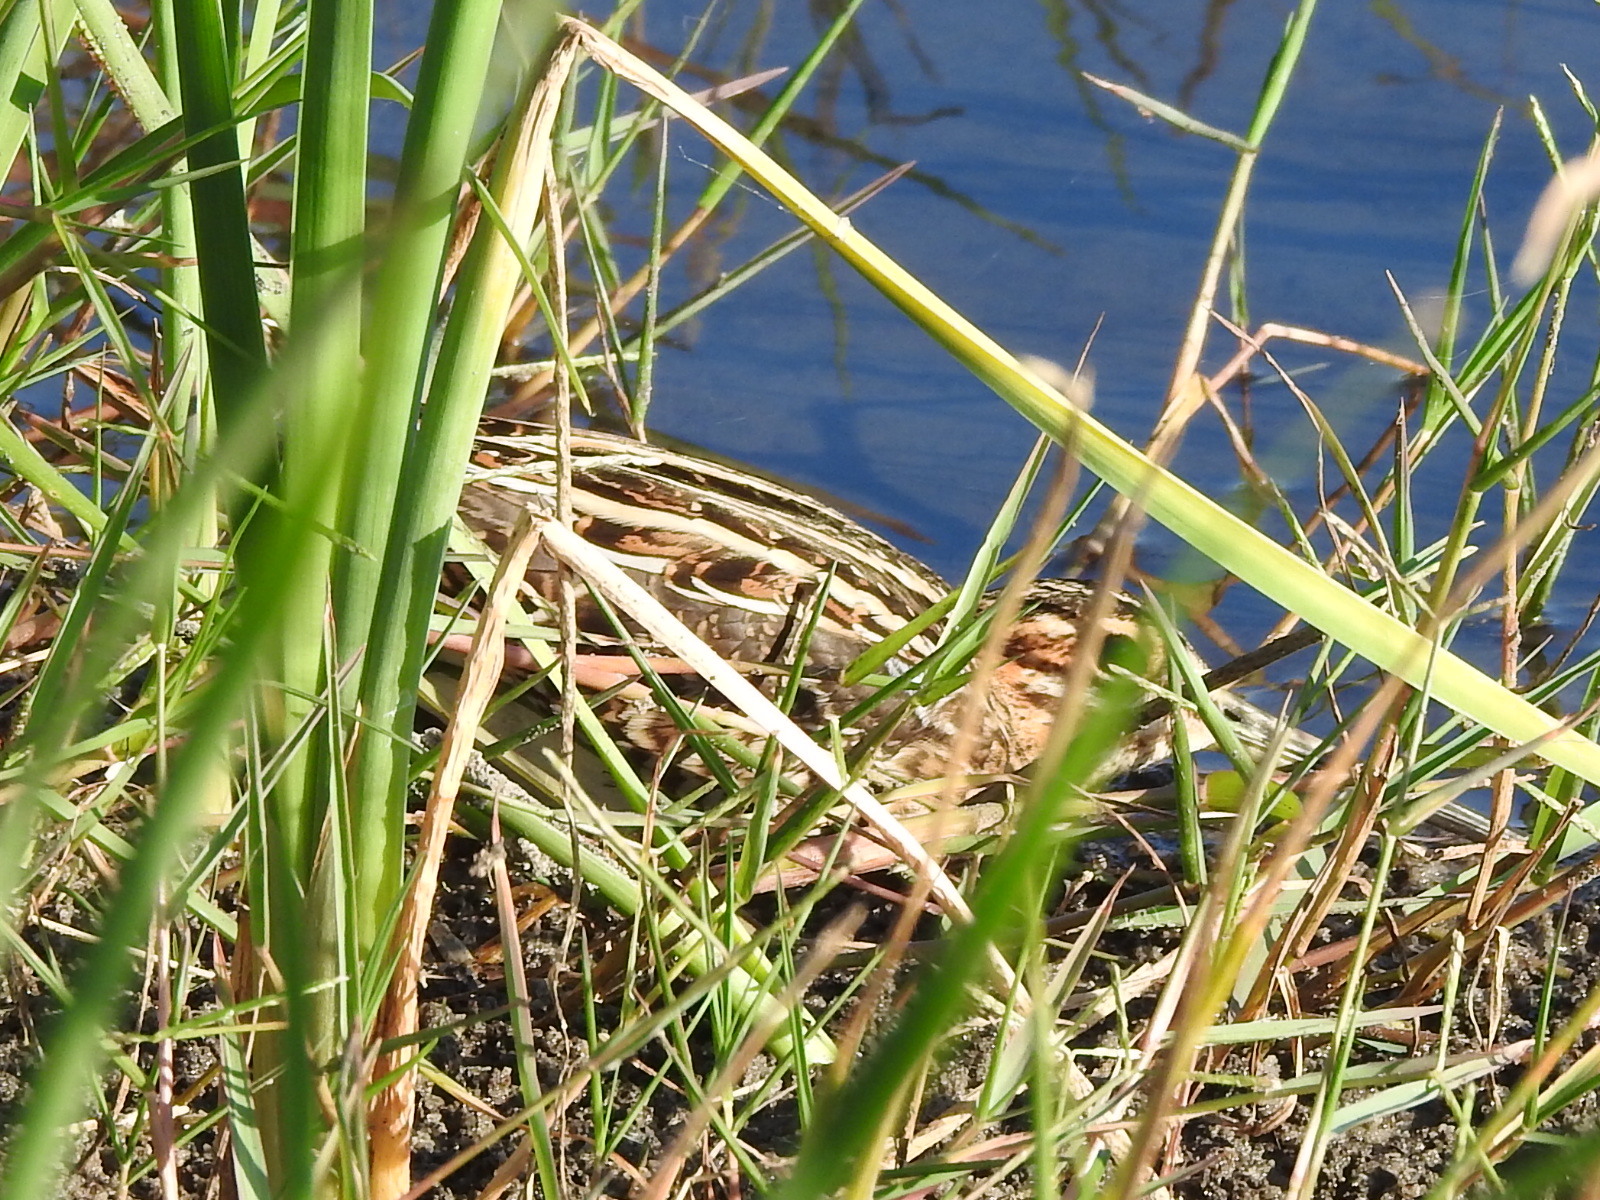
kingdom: Animalia
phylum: Chordata
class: Aves
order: Charadriiformes
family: Scolopacidae
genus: Gallinago
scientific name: Gallinago delicata
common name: Wilson's snipe
